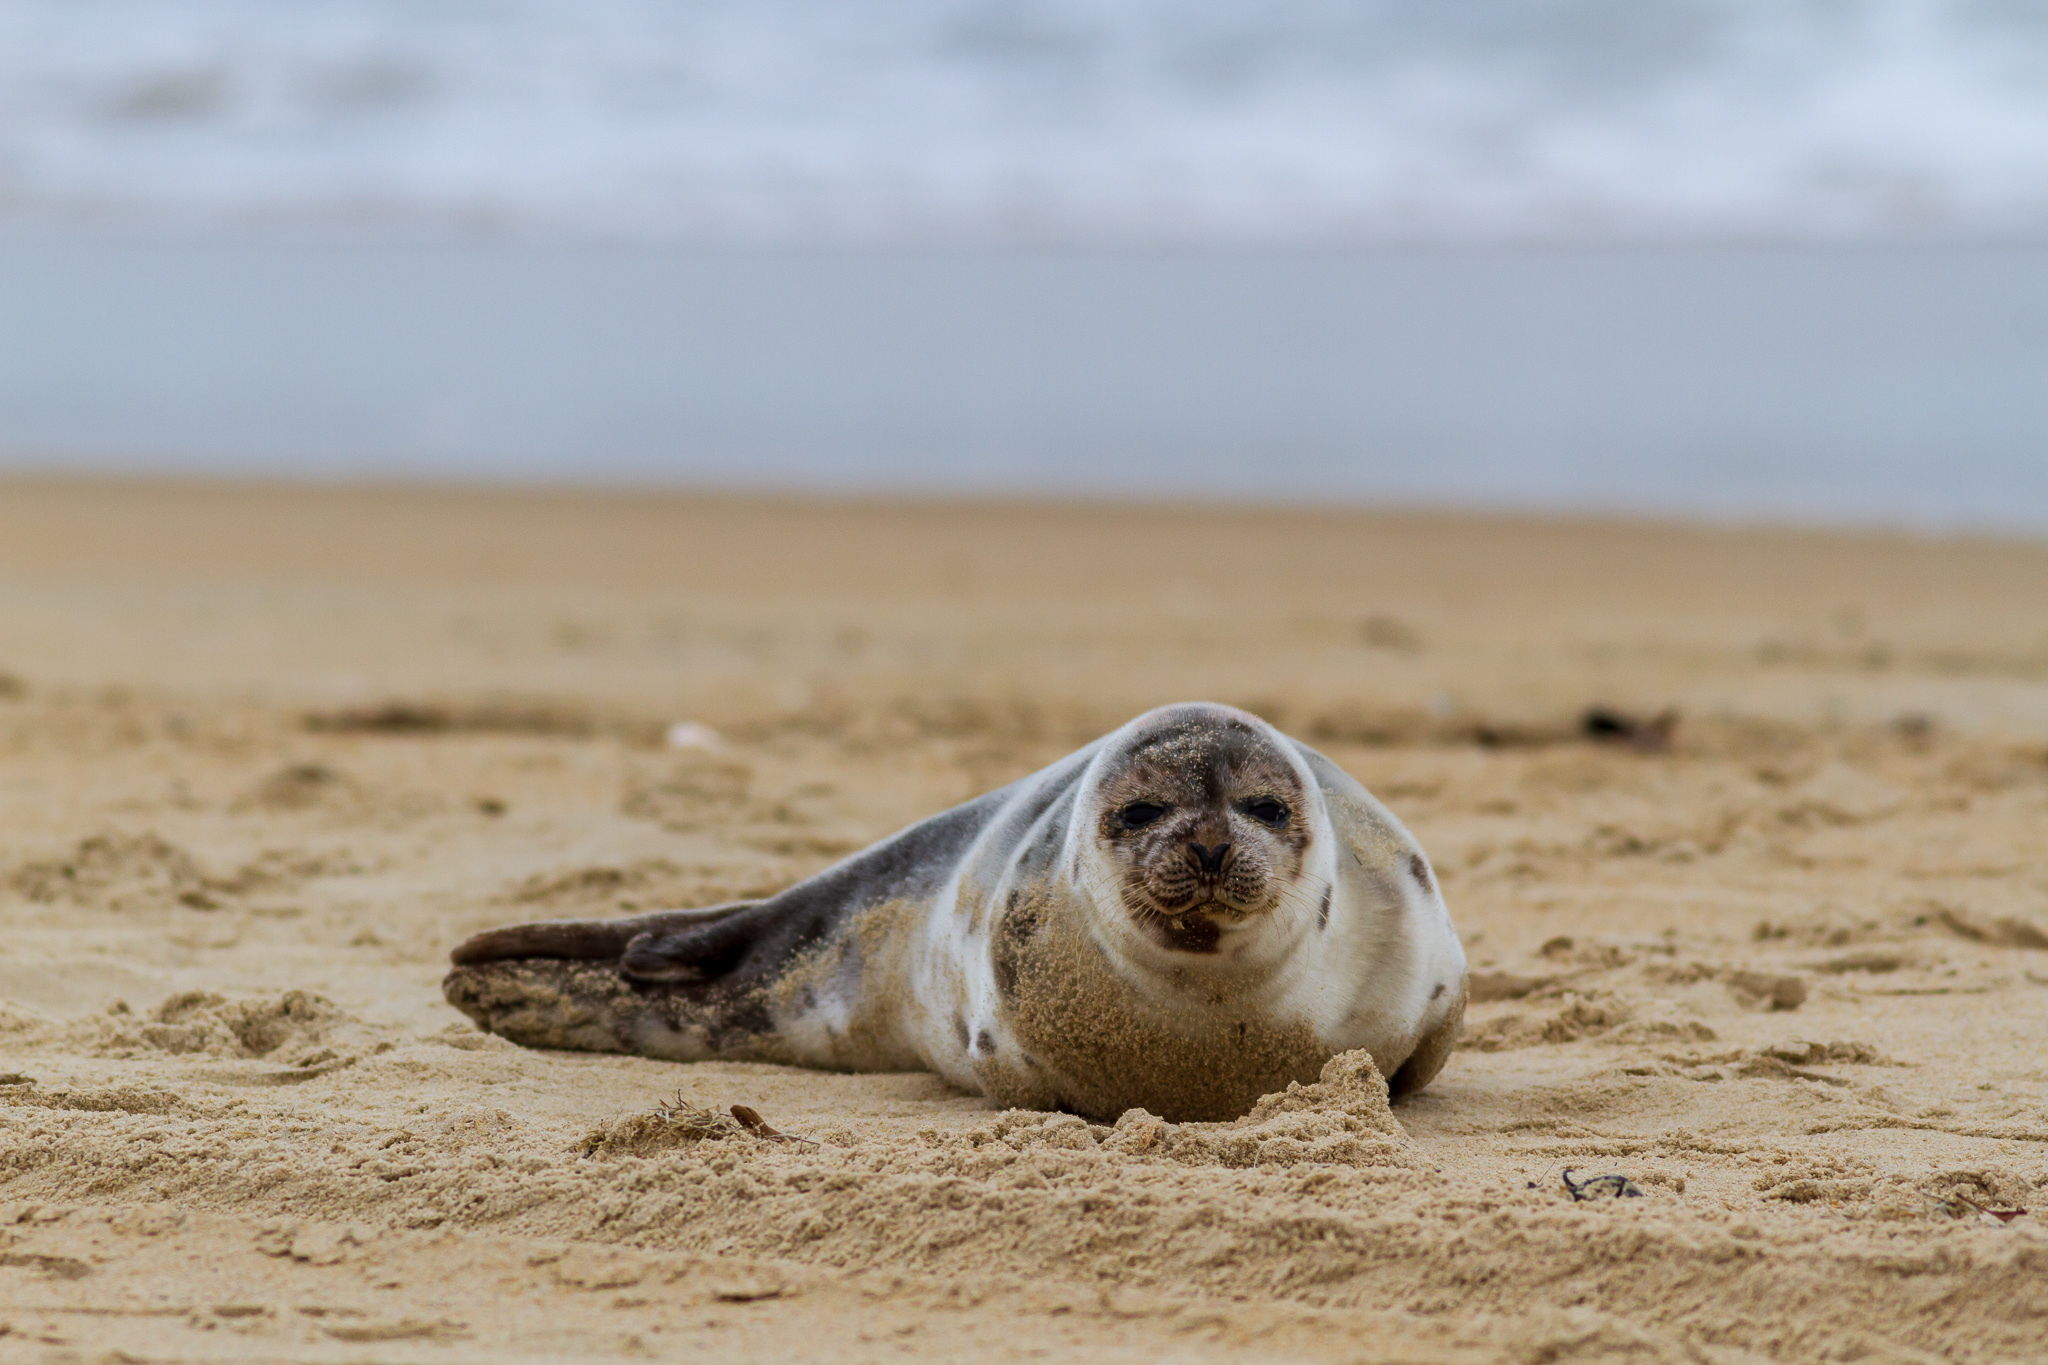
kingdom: Animalia
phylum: Chordata
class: Mammalia
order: Carnivora
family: Phocidae
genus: Pagophilus
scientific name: Pagophilus groenlandicus
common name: Harp seal
